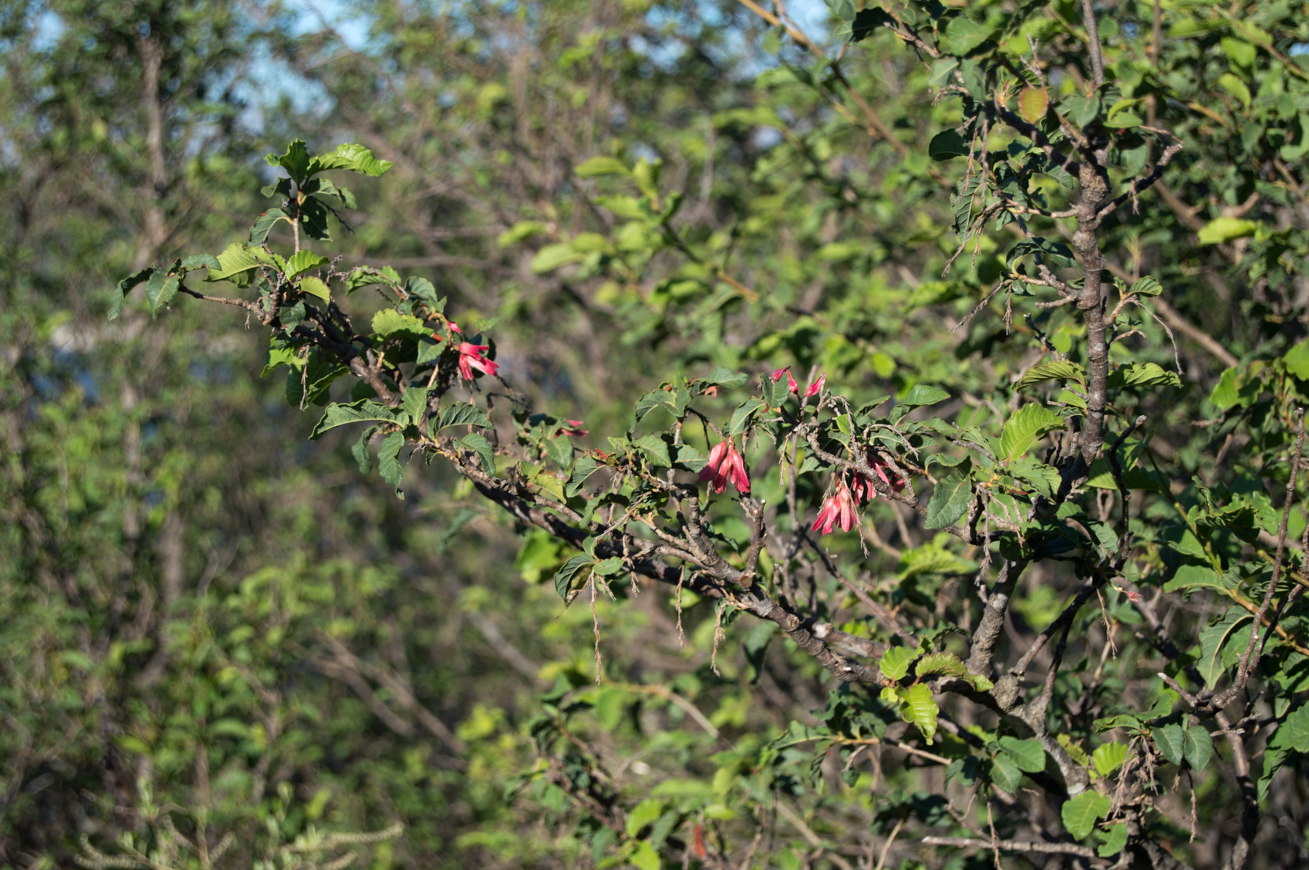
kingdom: Plantae
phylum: Tracheophyta
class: Magnoliopsida
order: Caryophyllales
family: Polygonaceae
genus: Ruprechtia
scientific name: Ruprechtia apetala
